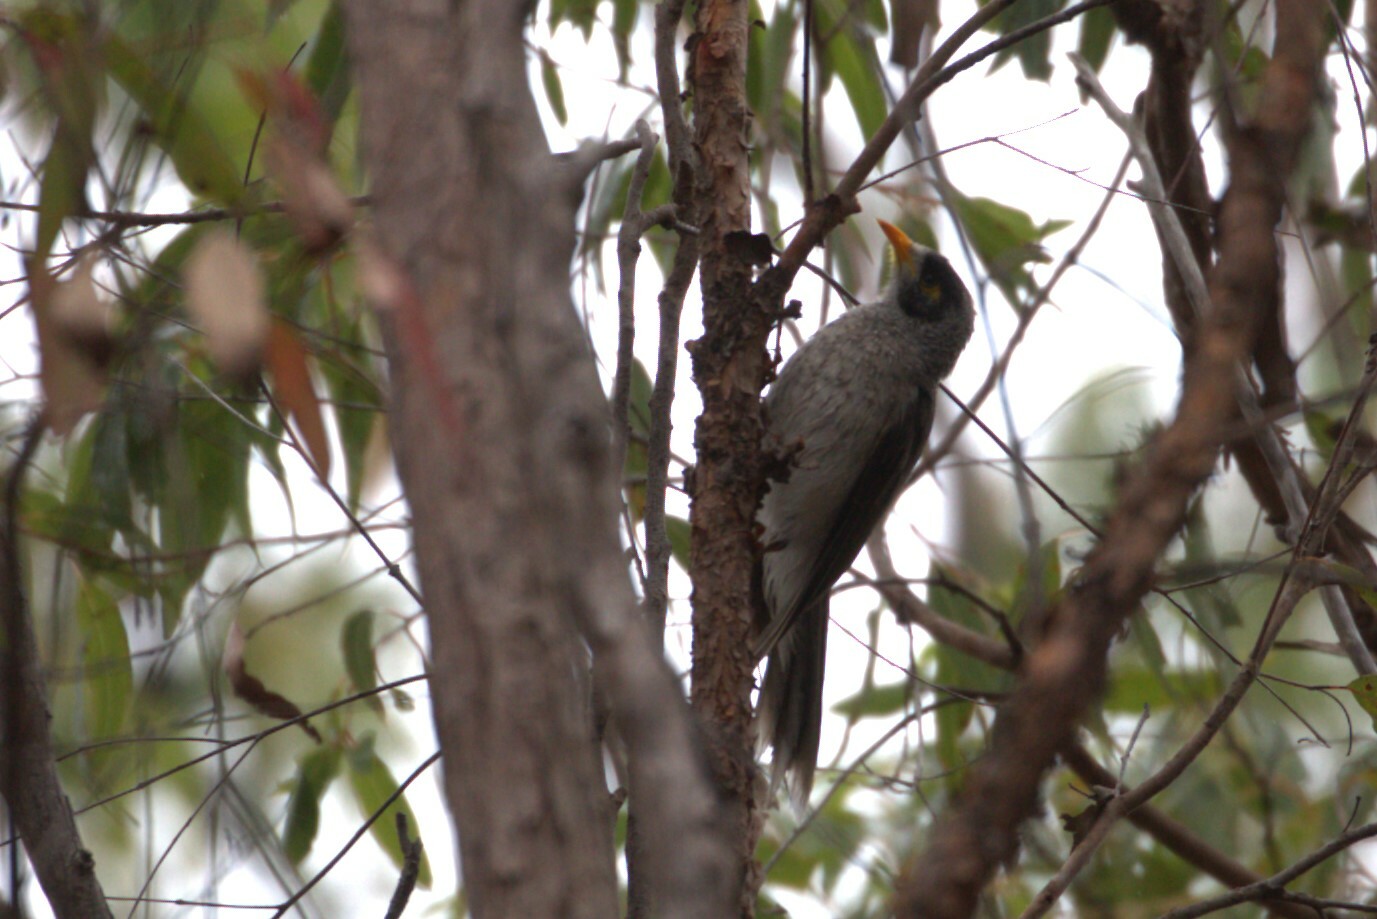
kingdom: Animalia
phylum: Chordata
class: Aves
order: Passeriformes
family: Meliphagidae
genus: Manorina
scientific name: Manorina melanocephala
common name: Noisy miner
